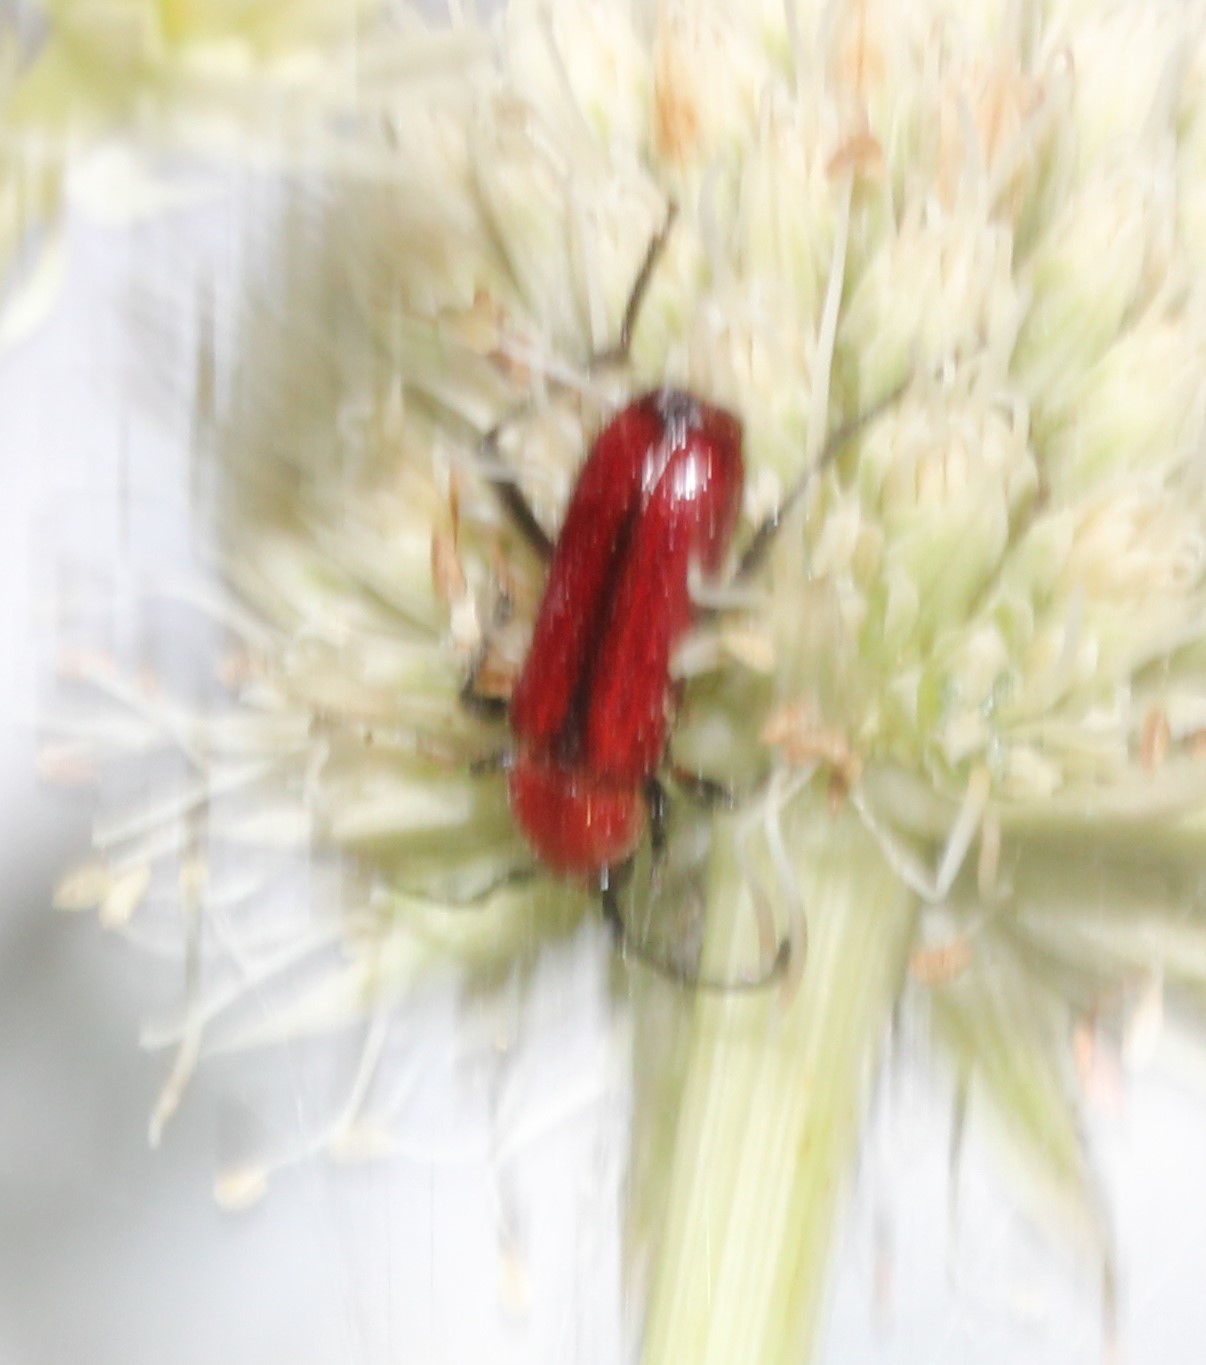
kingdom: Animalia
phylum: Arthropoda
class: Insecta
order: Coleoptera
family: Cerambycidae
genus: Batyle
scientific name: Batyle suturalis
